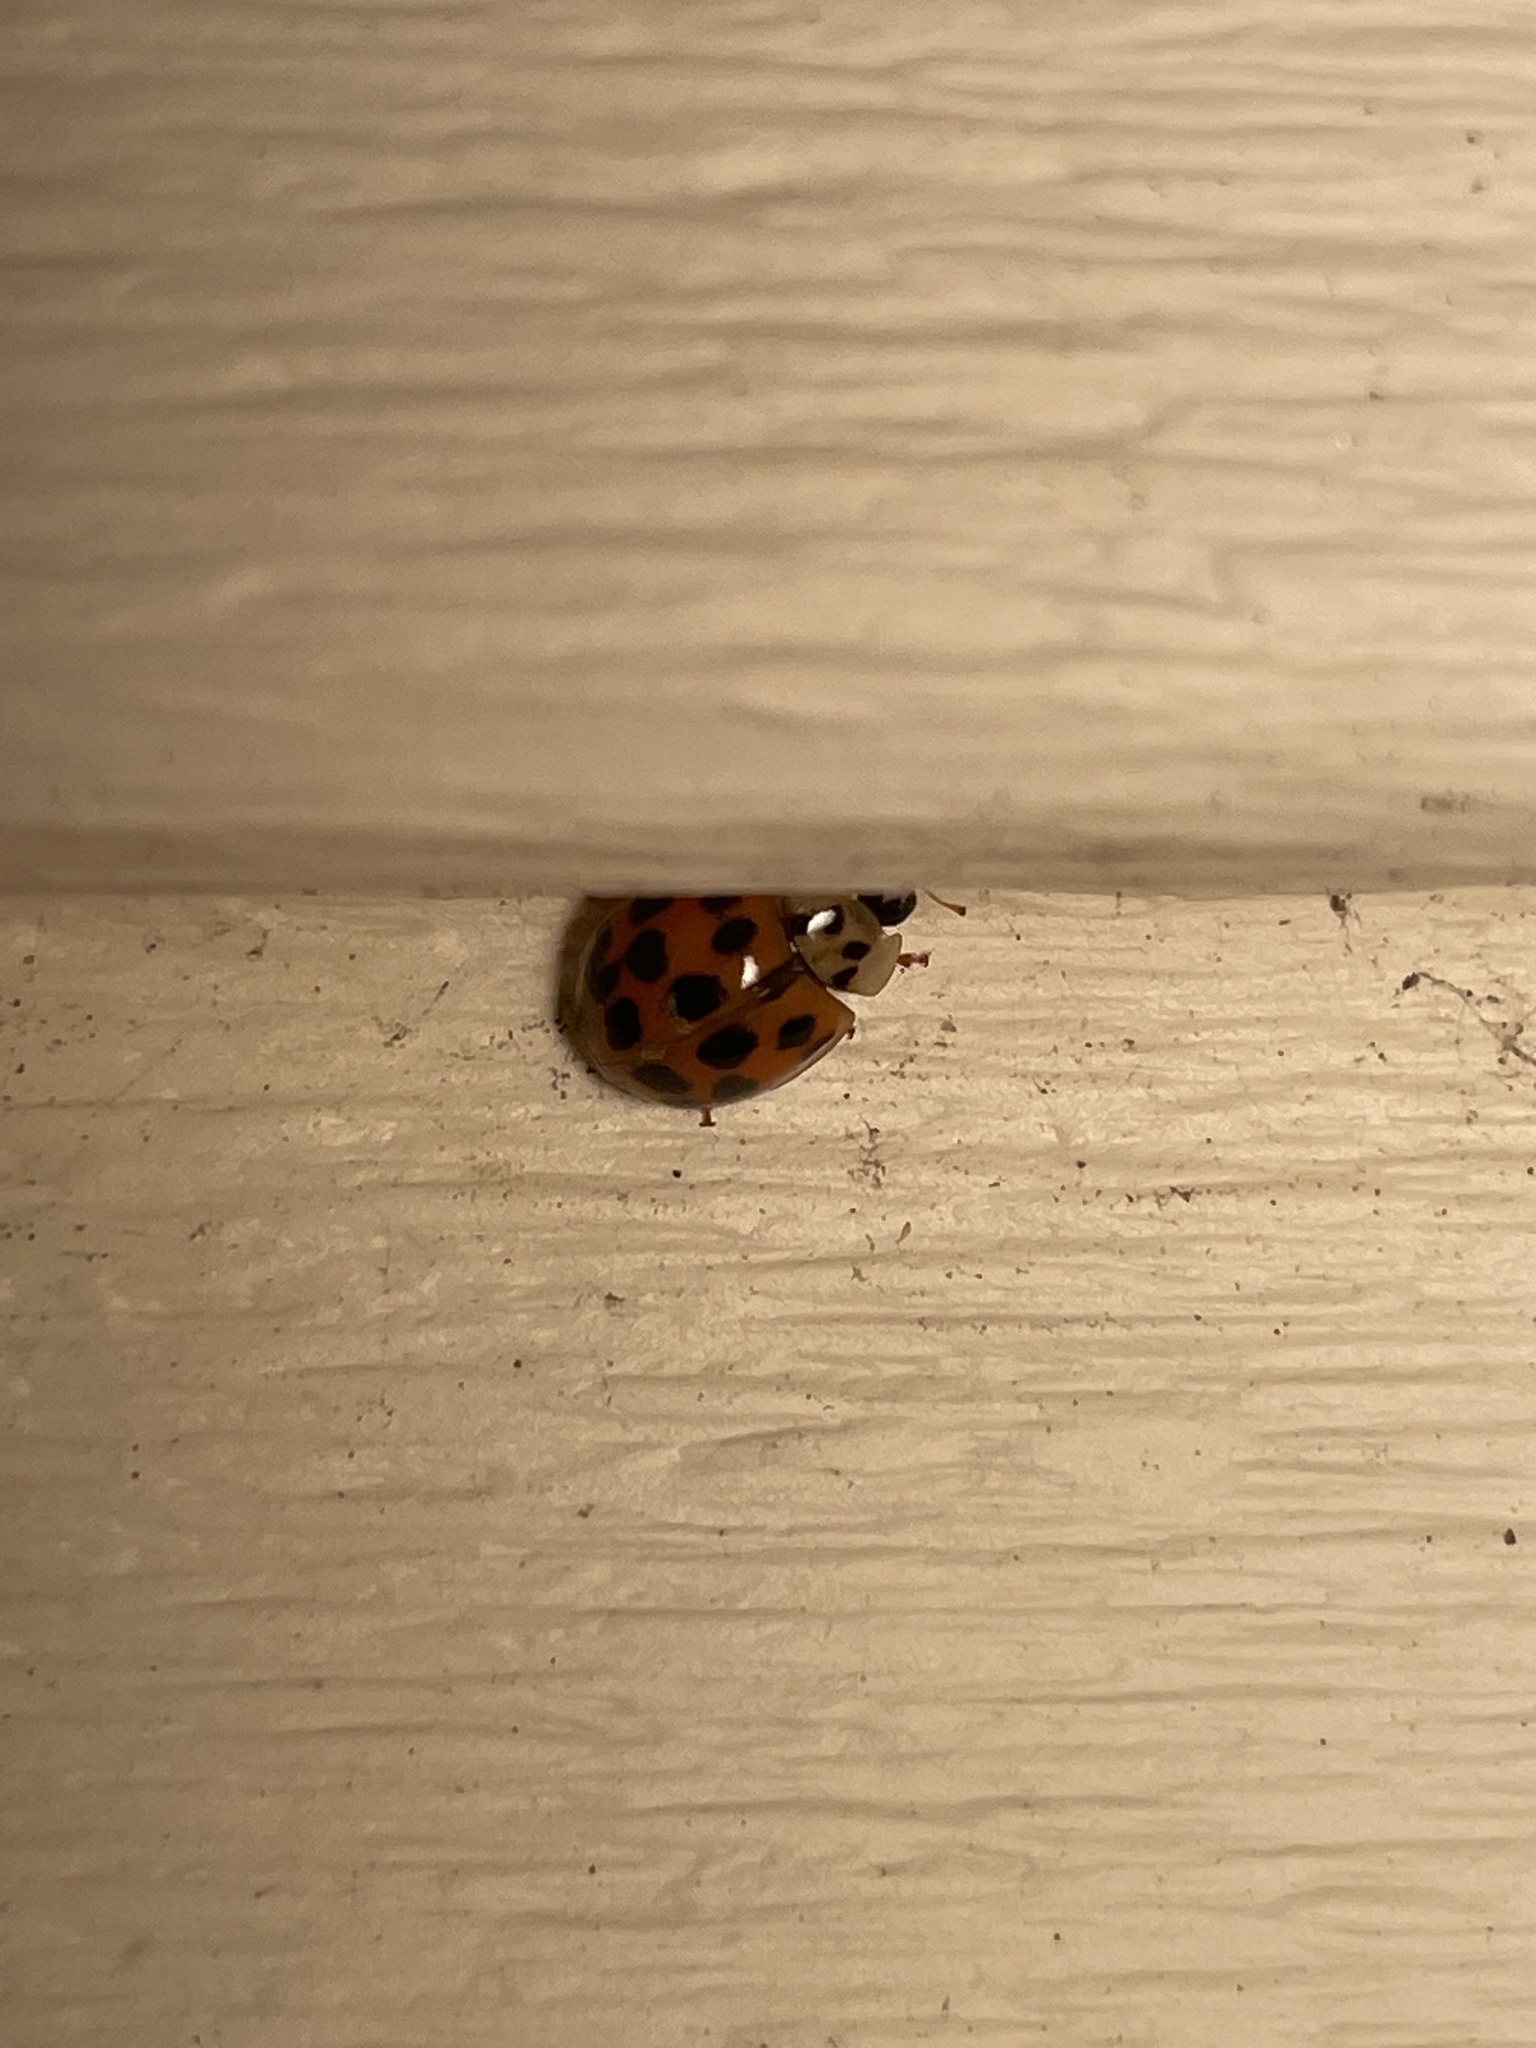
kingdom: Animalia
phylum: Arthropoda
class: Insecta
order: Coleoptera
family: Coccinellidae
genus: Harmonia
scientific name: Harmonia axyridis
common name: Harlequin ladybird
